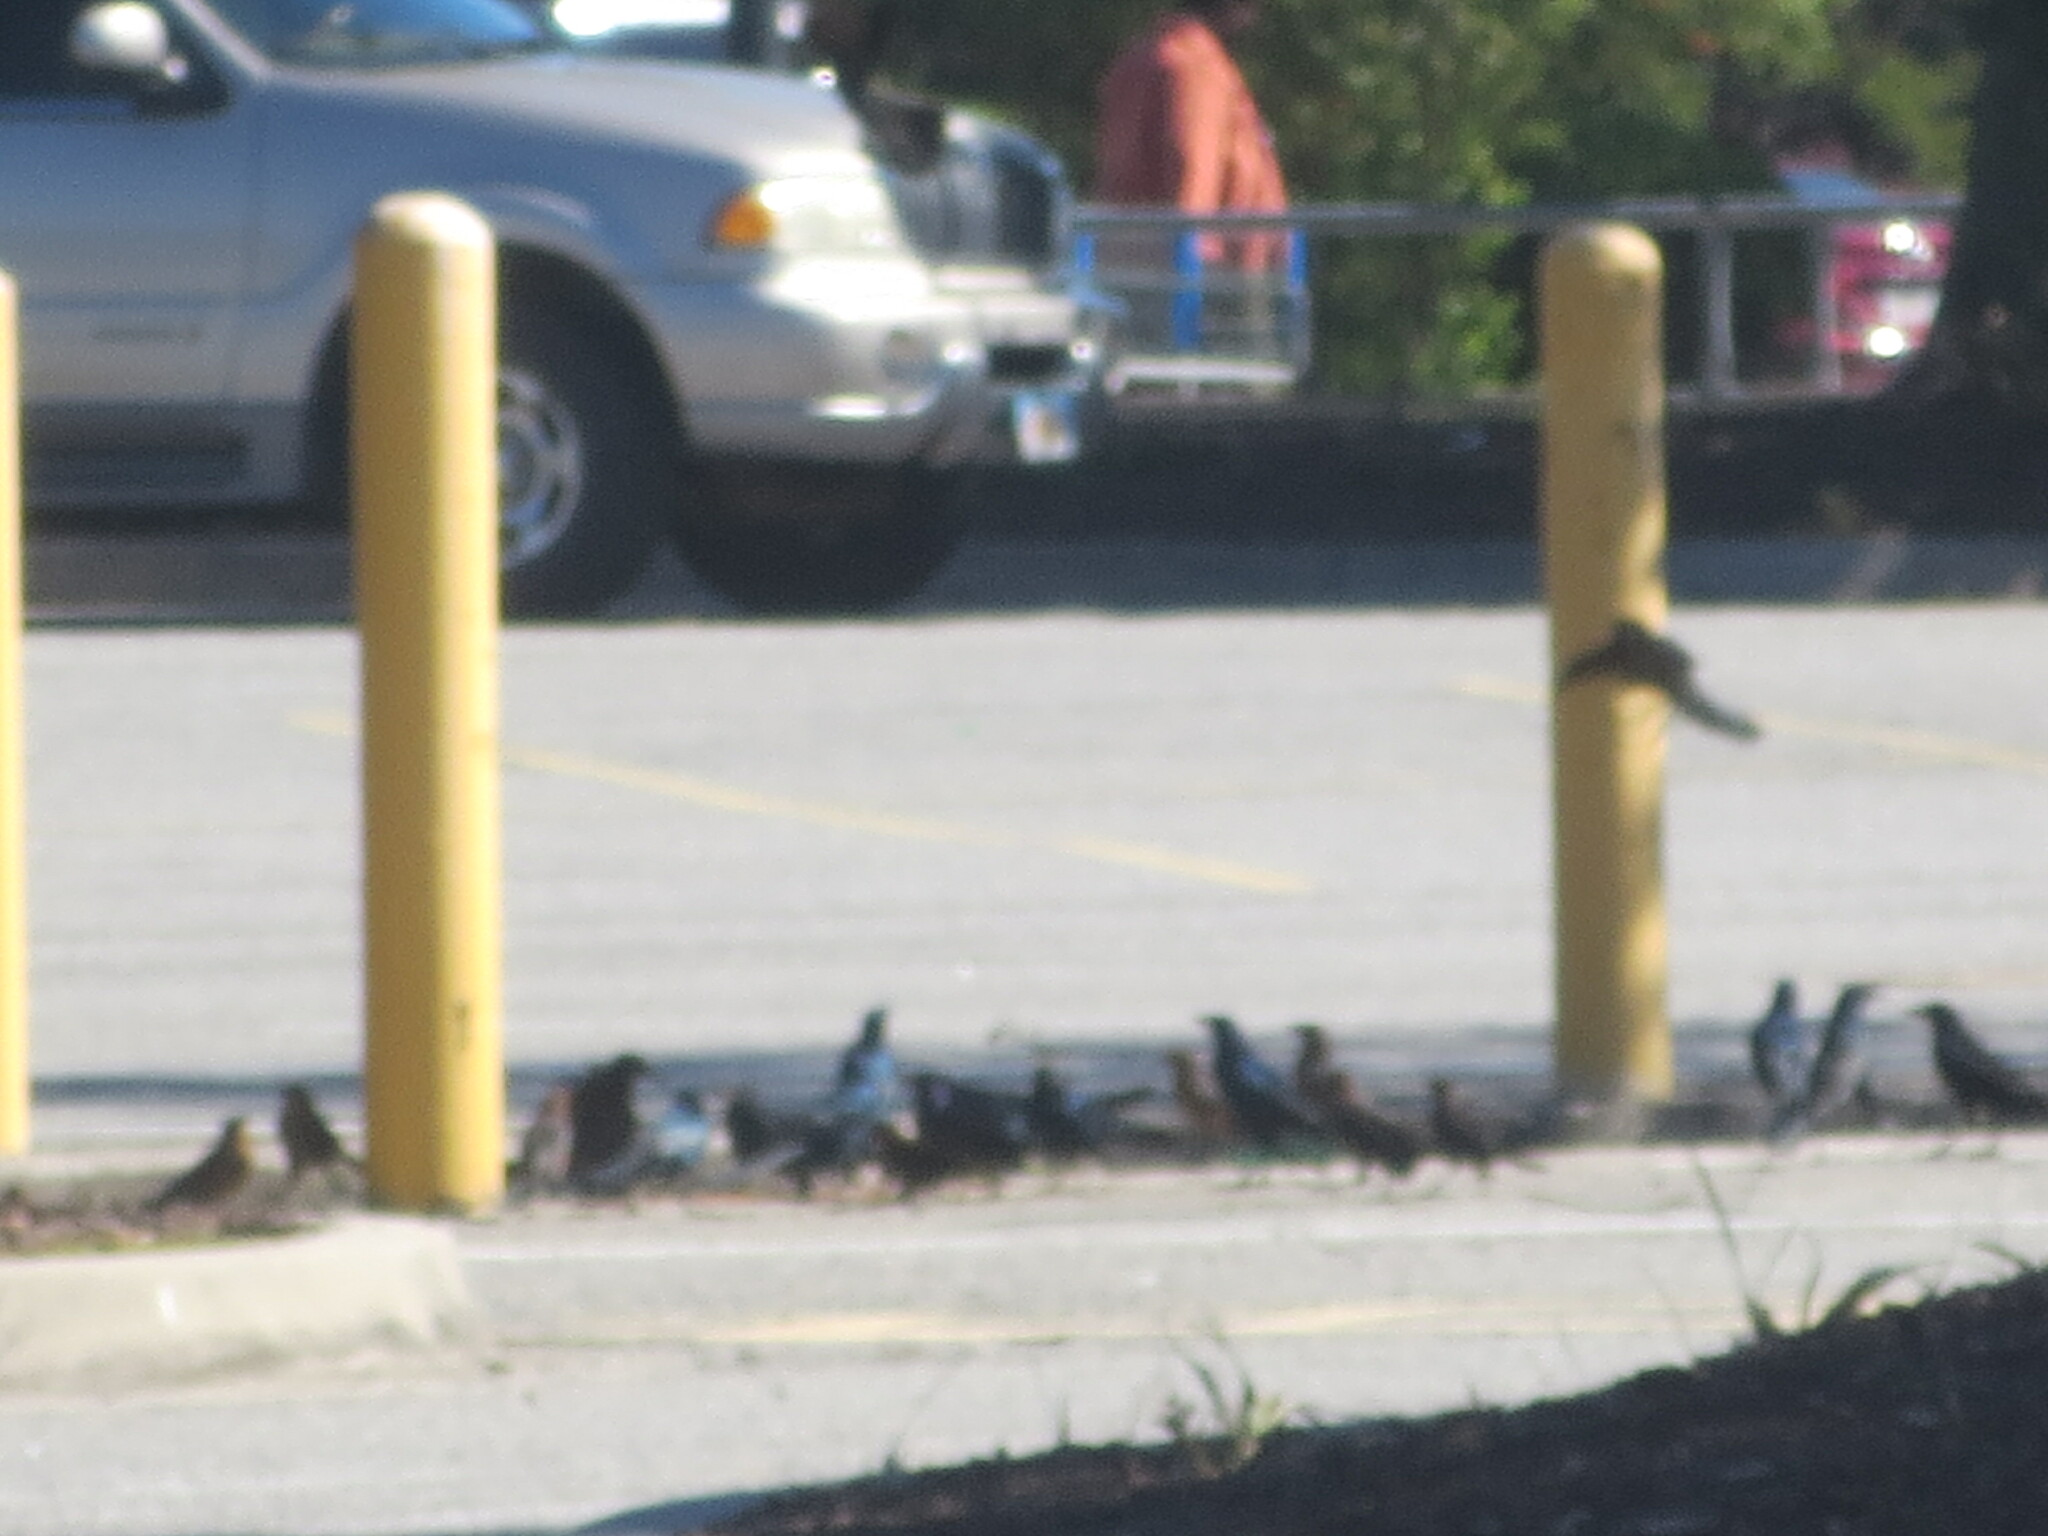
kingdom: Animalia
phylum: Chordata
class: Aves
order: Passeriformes
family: Icteridae
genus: Quiscalus
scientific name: Quiscalus major
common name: Boat-tailed grackle
